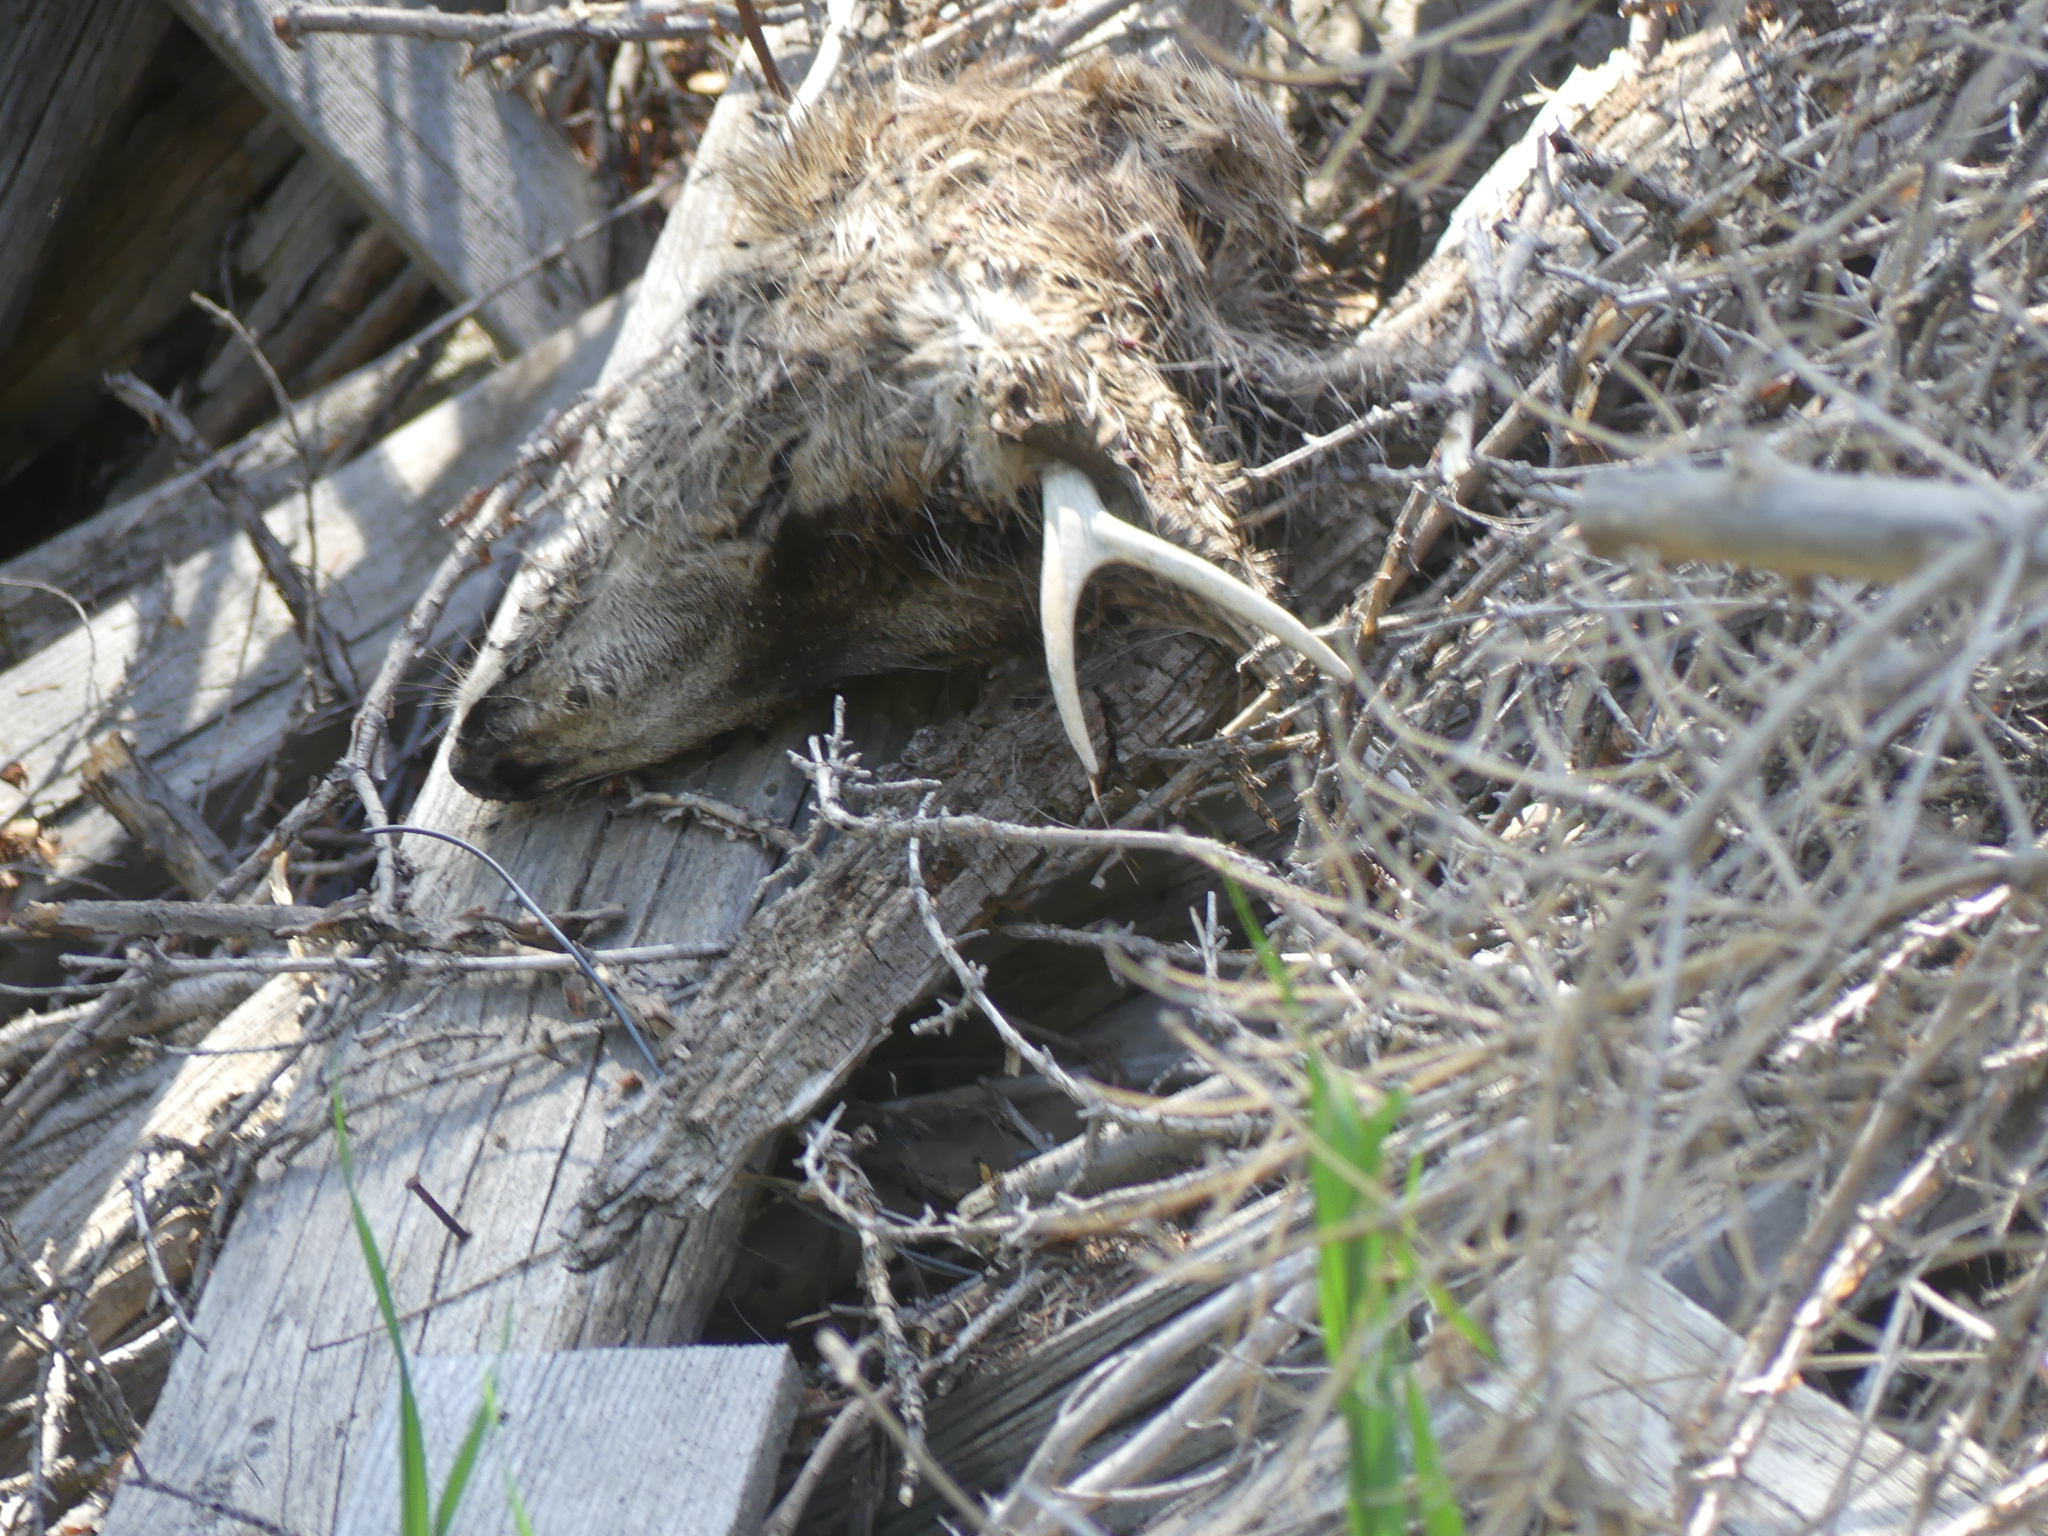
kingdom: Animalia
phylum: Chordata
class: Mammalia
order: Artiodactyla
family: Cervidae
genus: Odocoileus
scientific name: Odocoileus hemionus
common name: Mule deer
